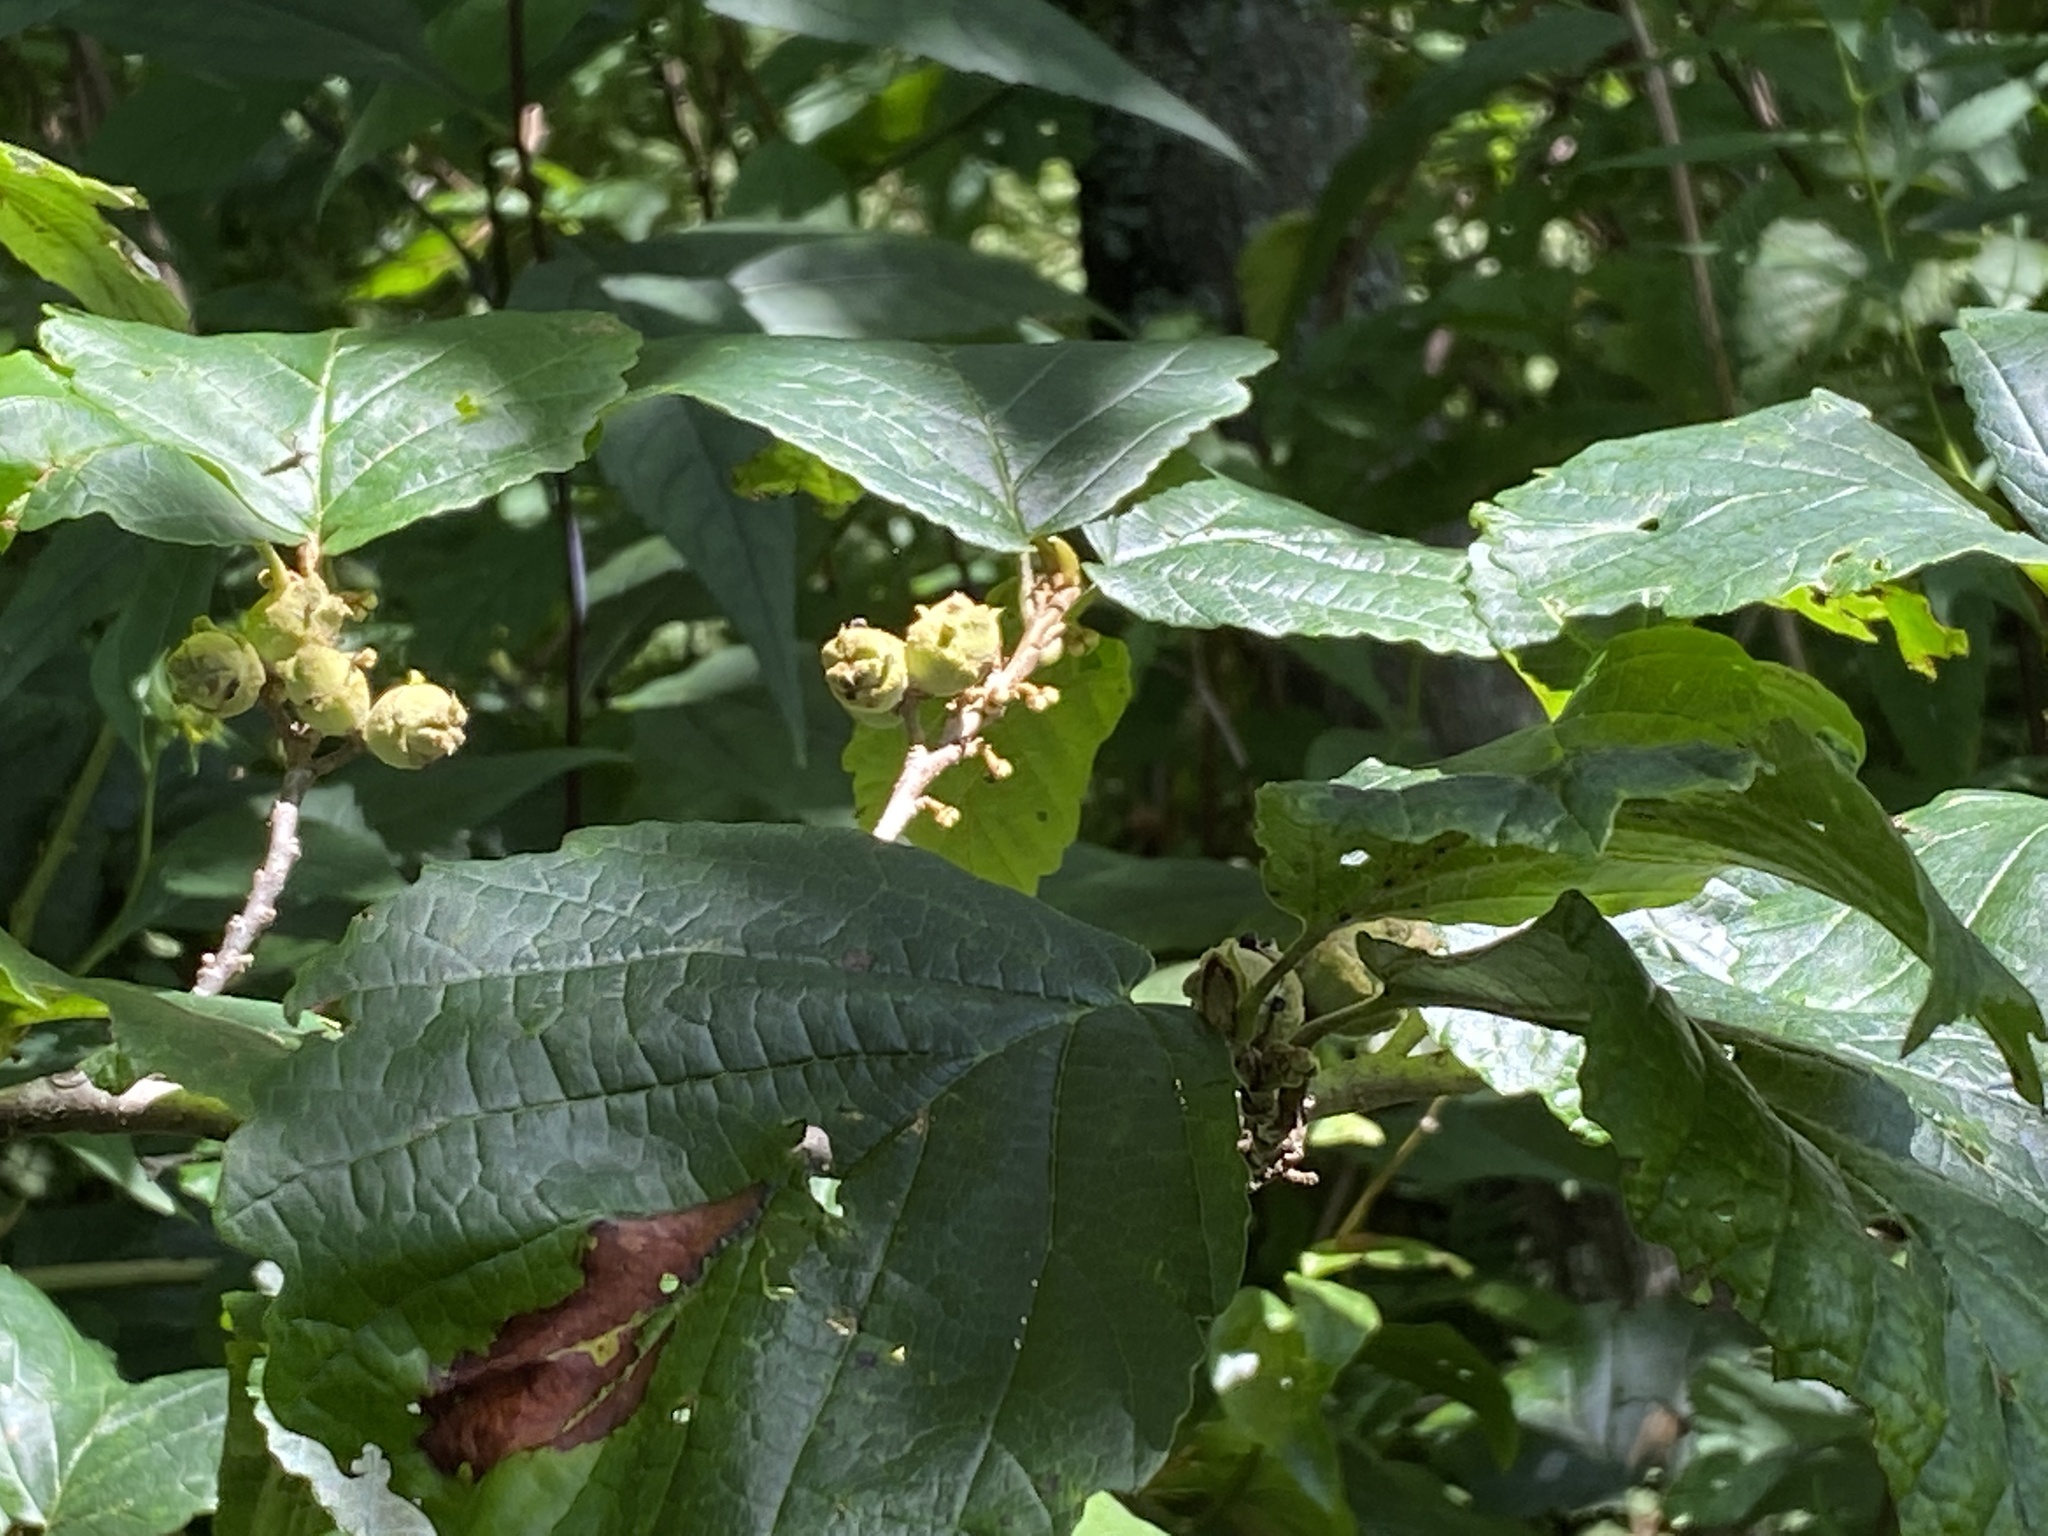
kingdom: Plantae
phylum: Tracheophyta
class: Magnoliopsida
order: Saxifragales
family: Hamamelidaceae
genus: Hamamelis
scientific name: Hamamelis virginiana
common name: Witch-hazel
